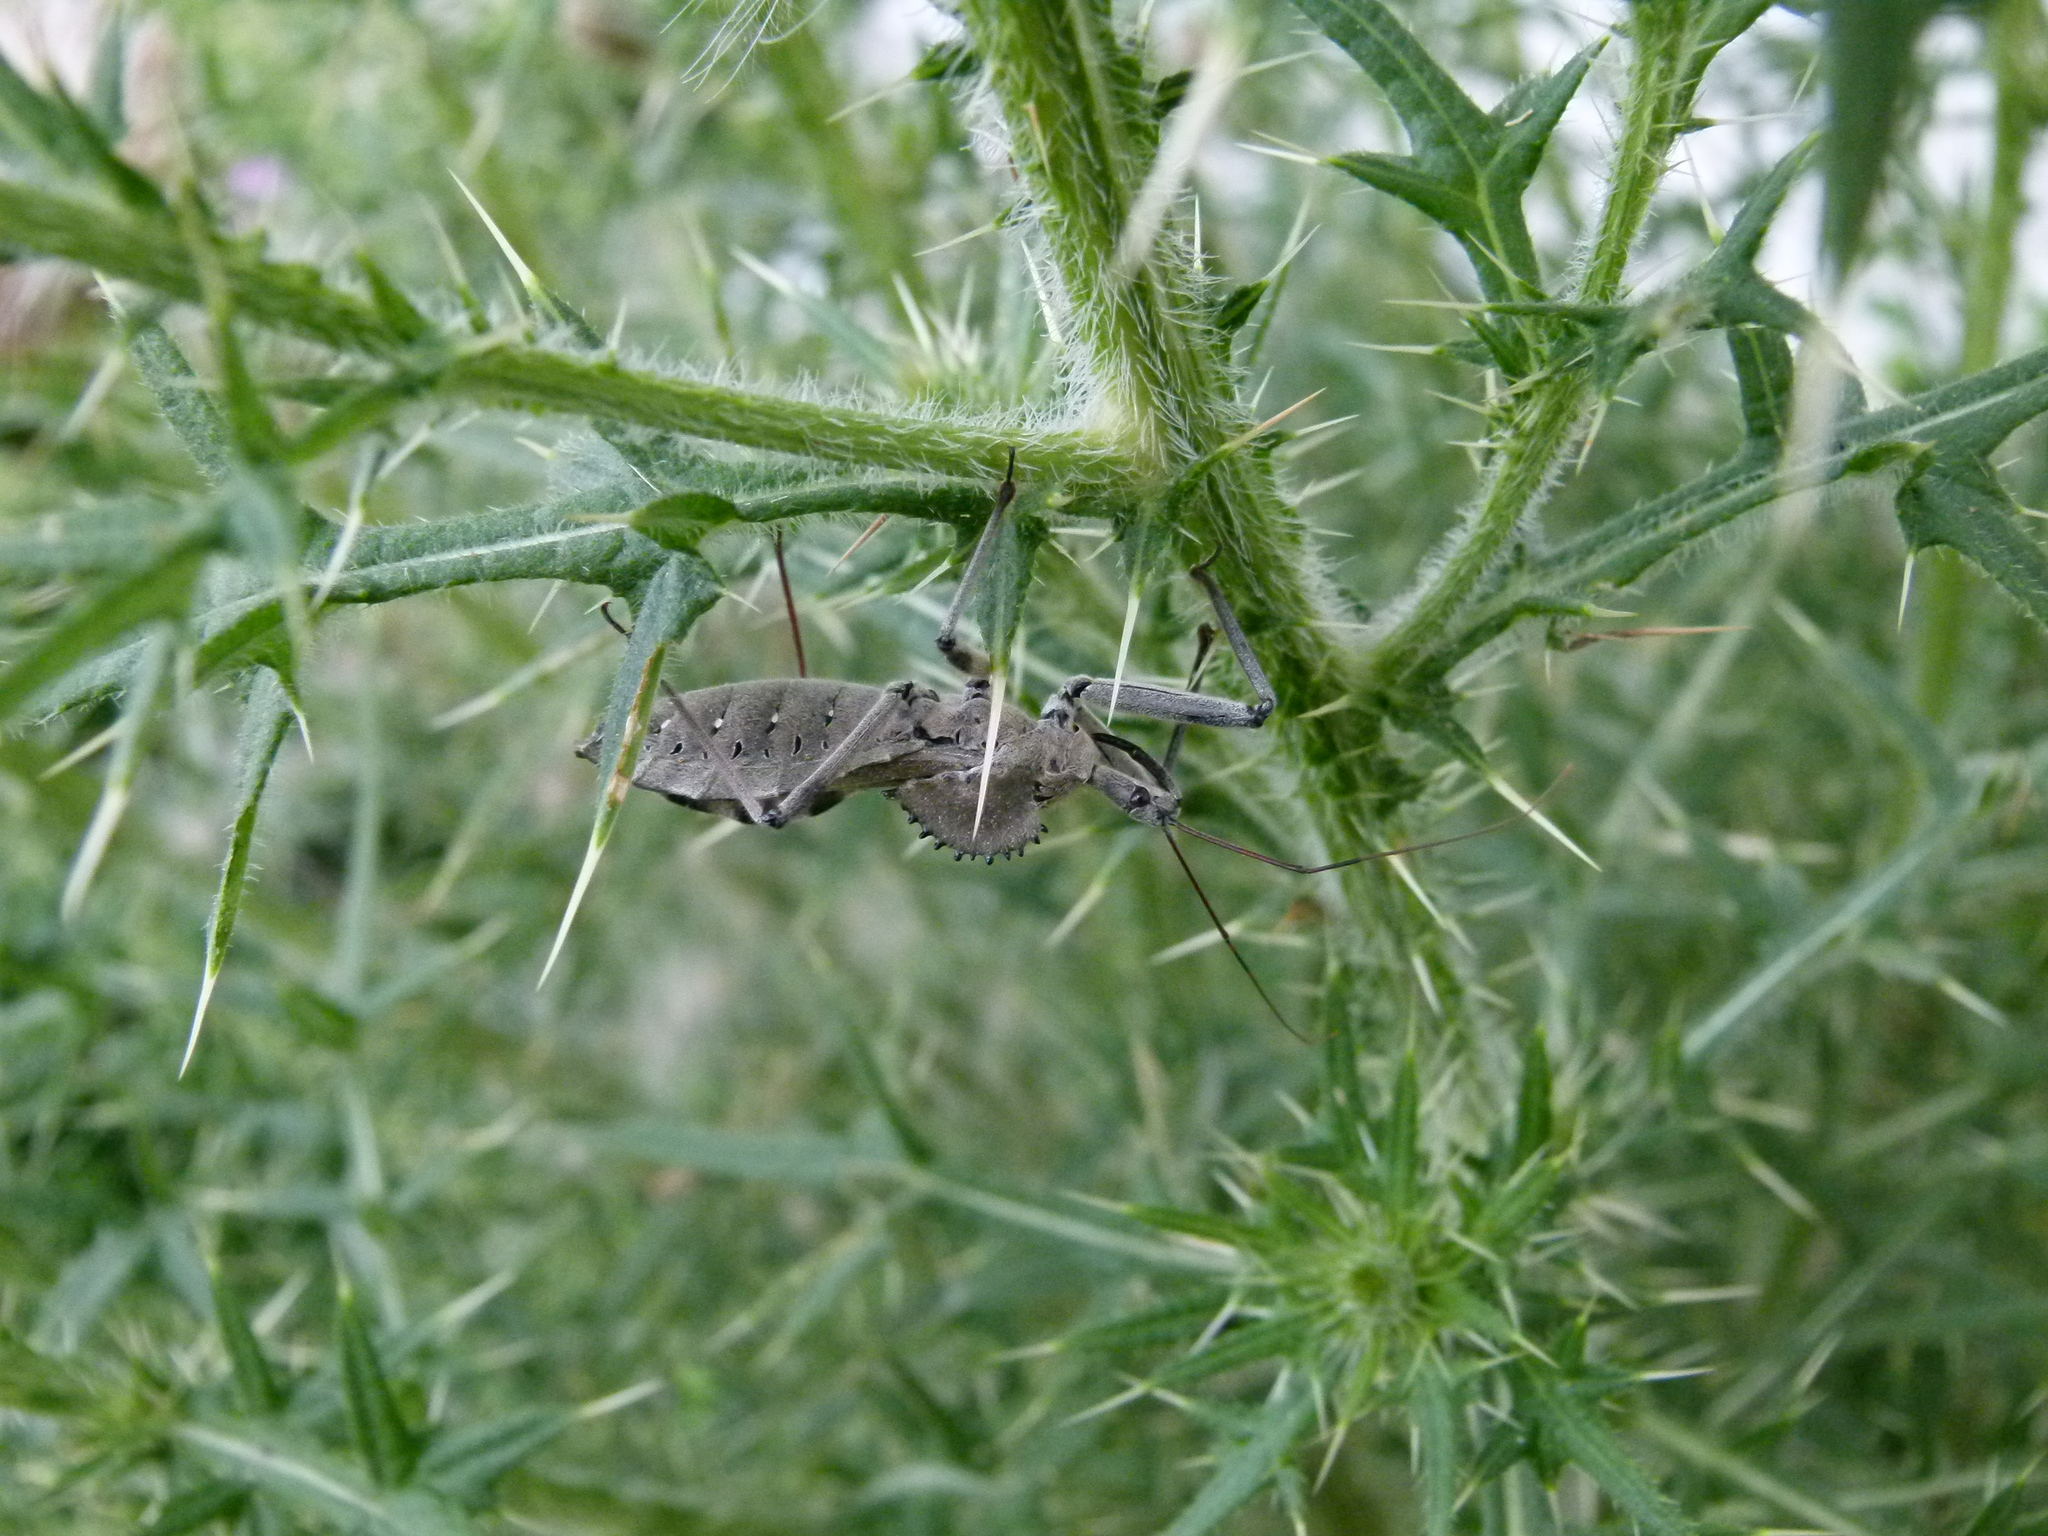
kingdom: Animalia
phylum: Arthropoda
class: Insecta
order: Hemiptera
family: Reduviidae
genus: Arilus
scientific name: Arilus cristatus
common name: North american wheel bug
